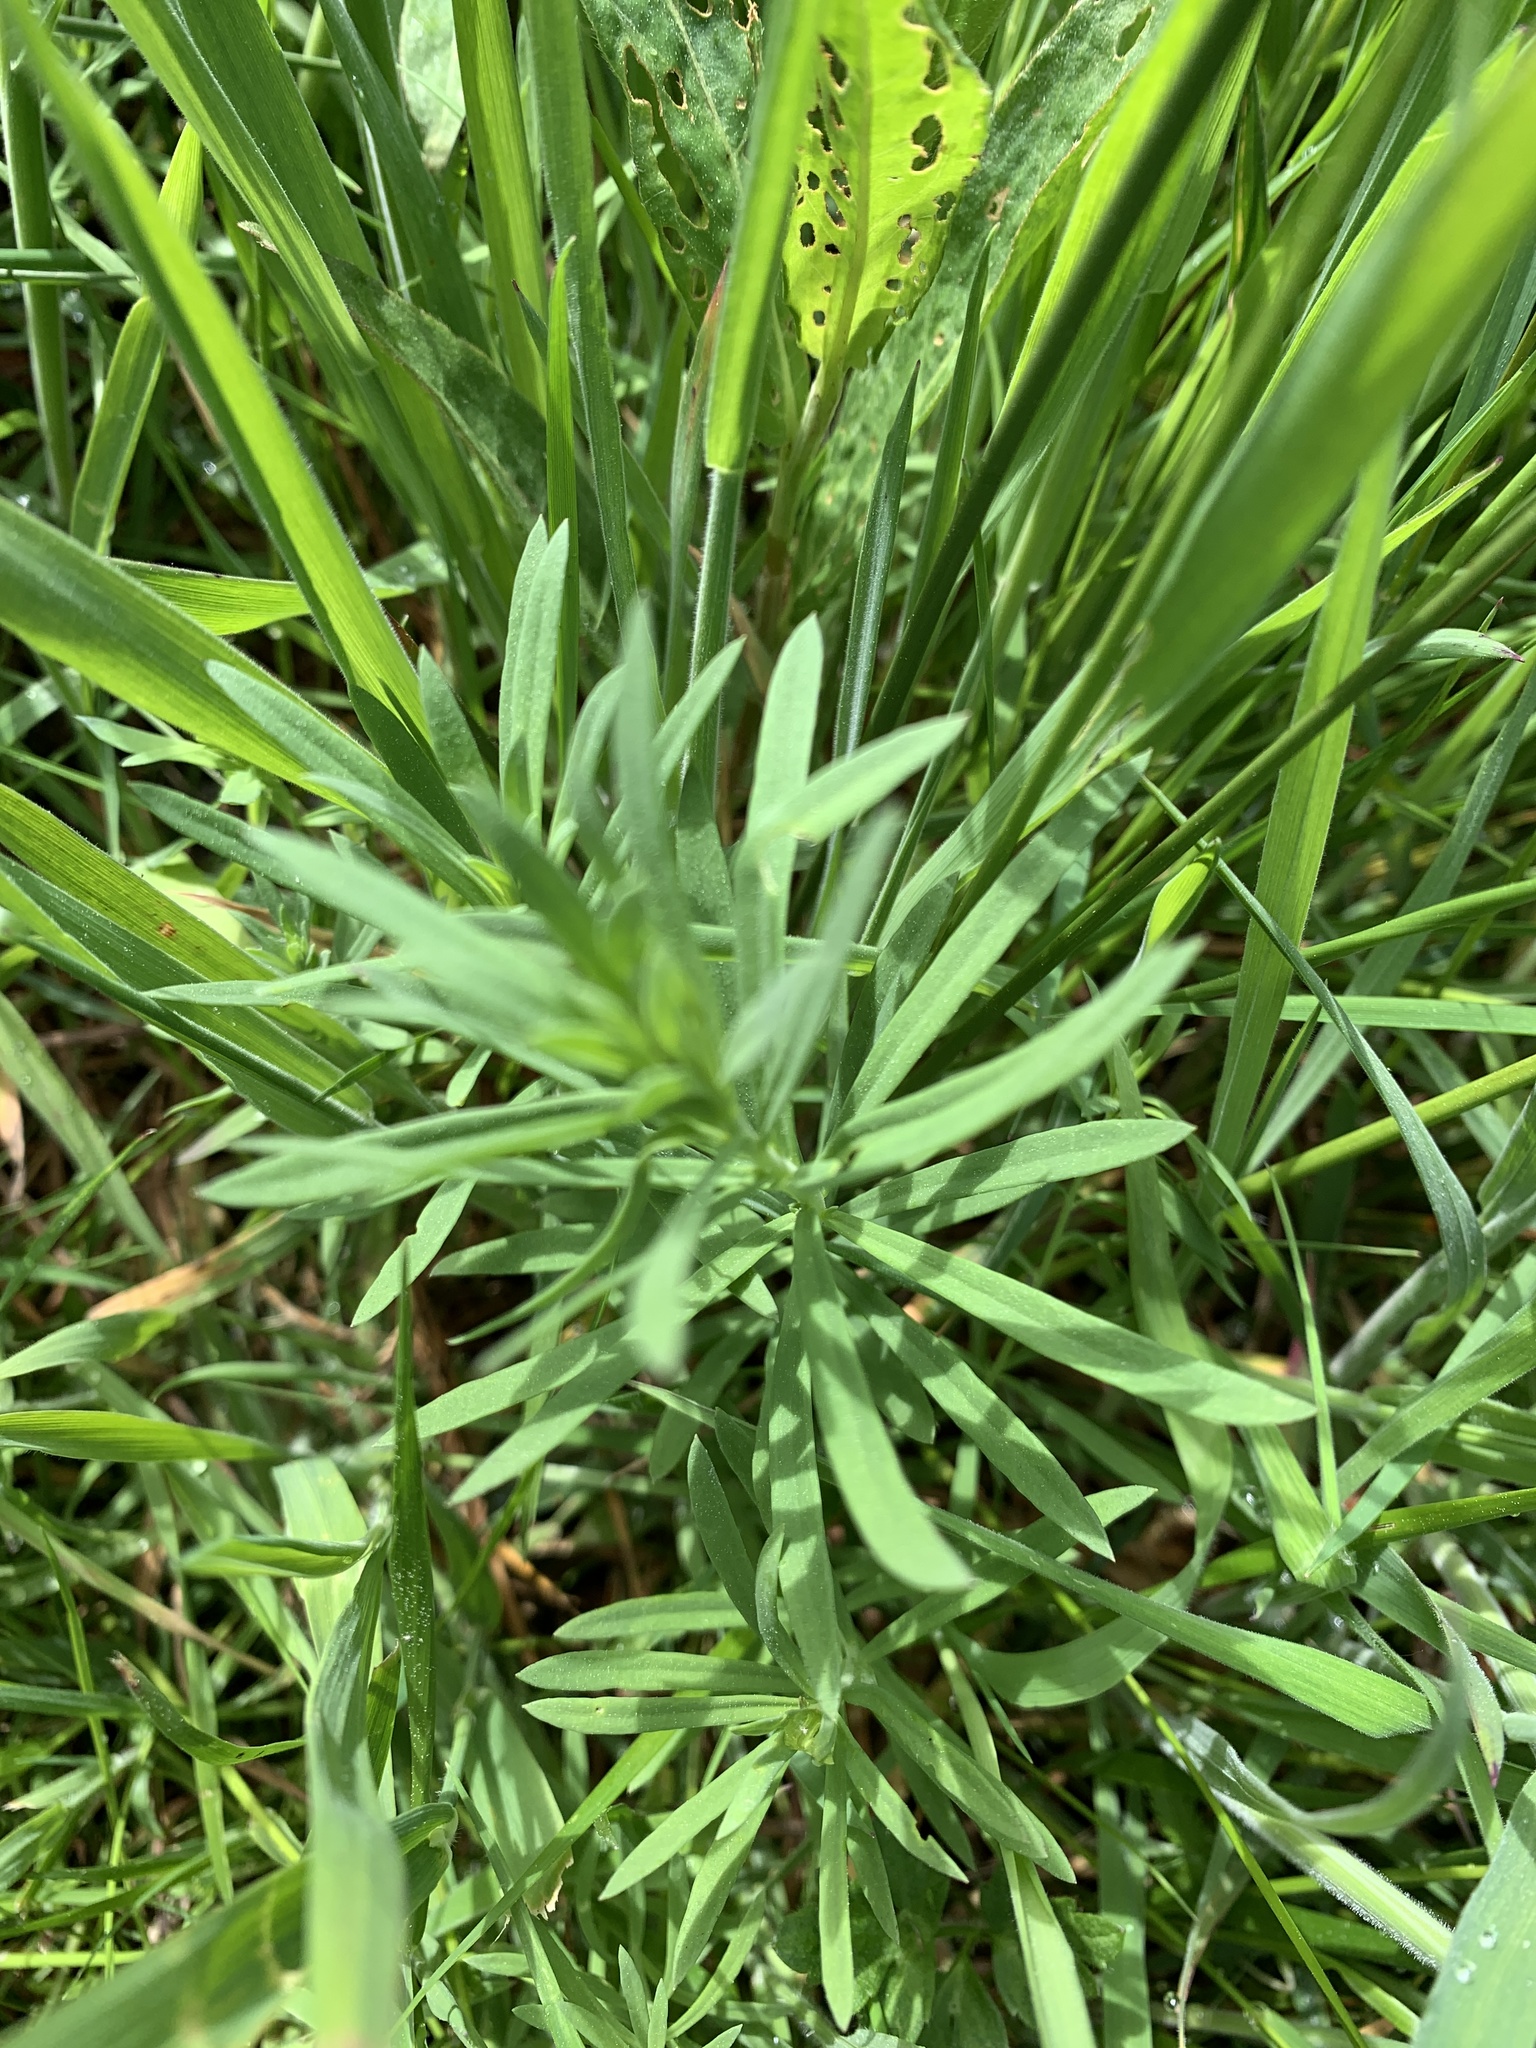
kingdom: Plantae
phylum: Tracheophyta
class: Magnoliopsida
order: Lamiales
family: Plantaginaceae
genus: Linaria
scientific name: Linaria vulgaris
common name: Butter and eggs
